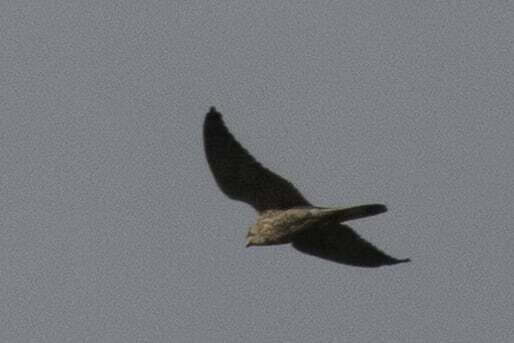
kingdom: Animalia
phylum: Chordata
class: Aves
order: Falconiformes
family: Falconidae
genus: Falco
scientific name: Falco tinnunculus
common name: Common kestrel
